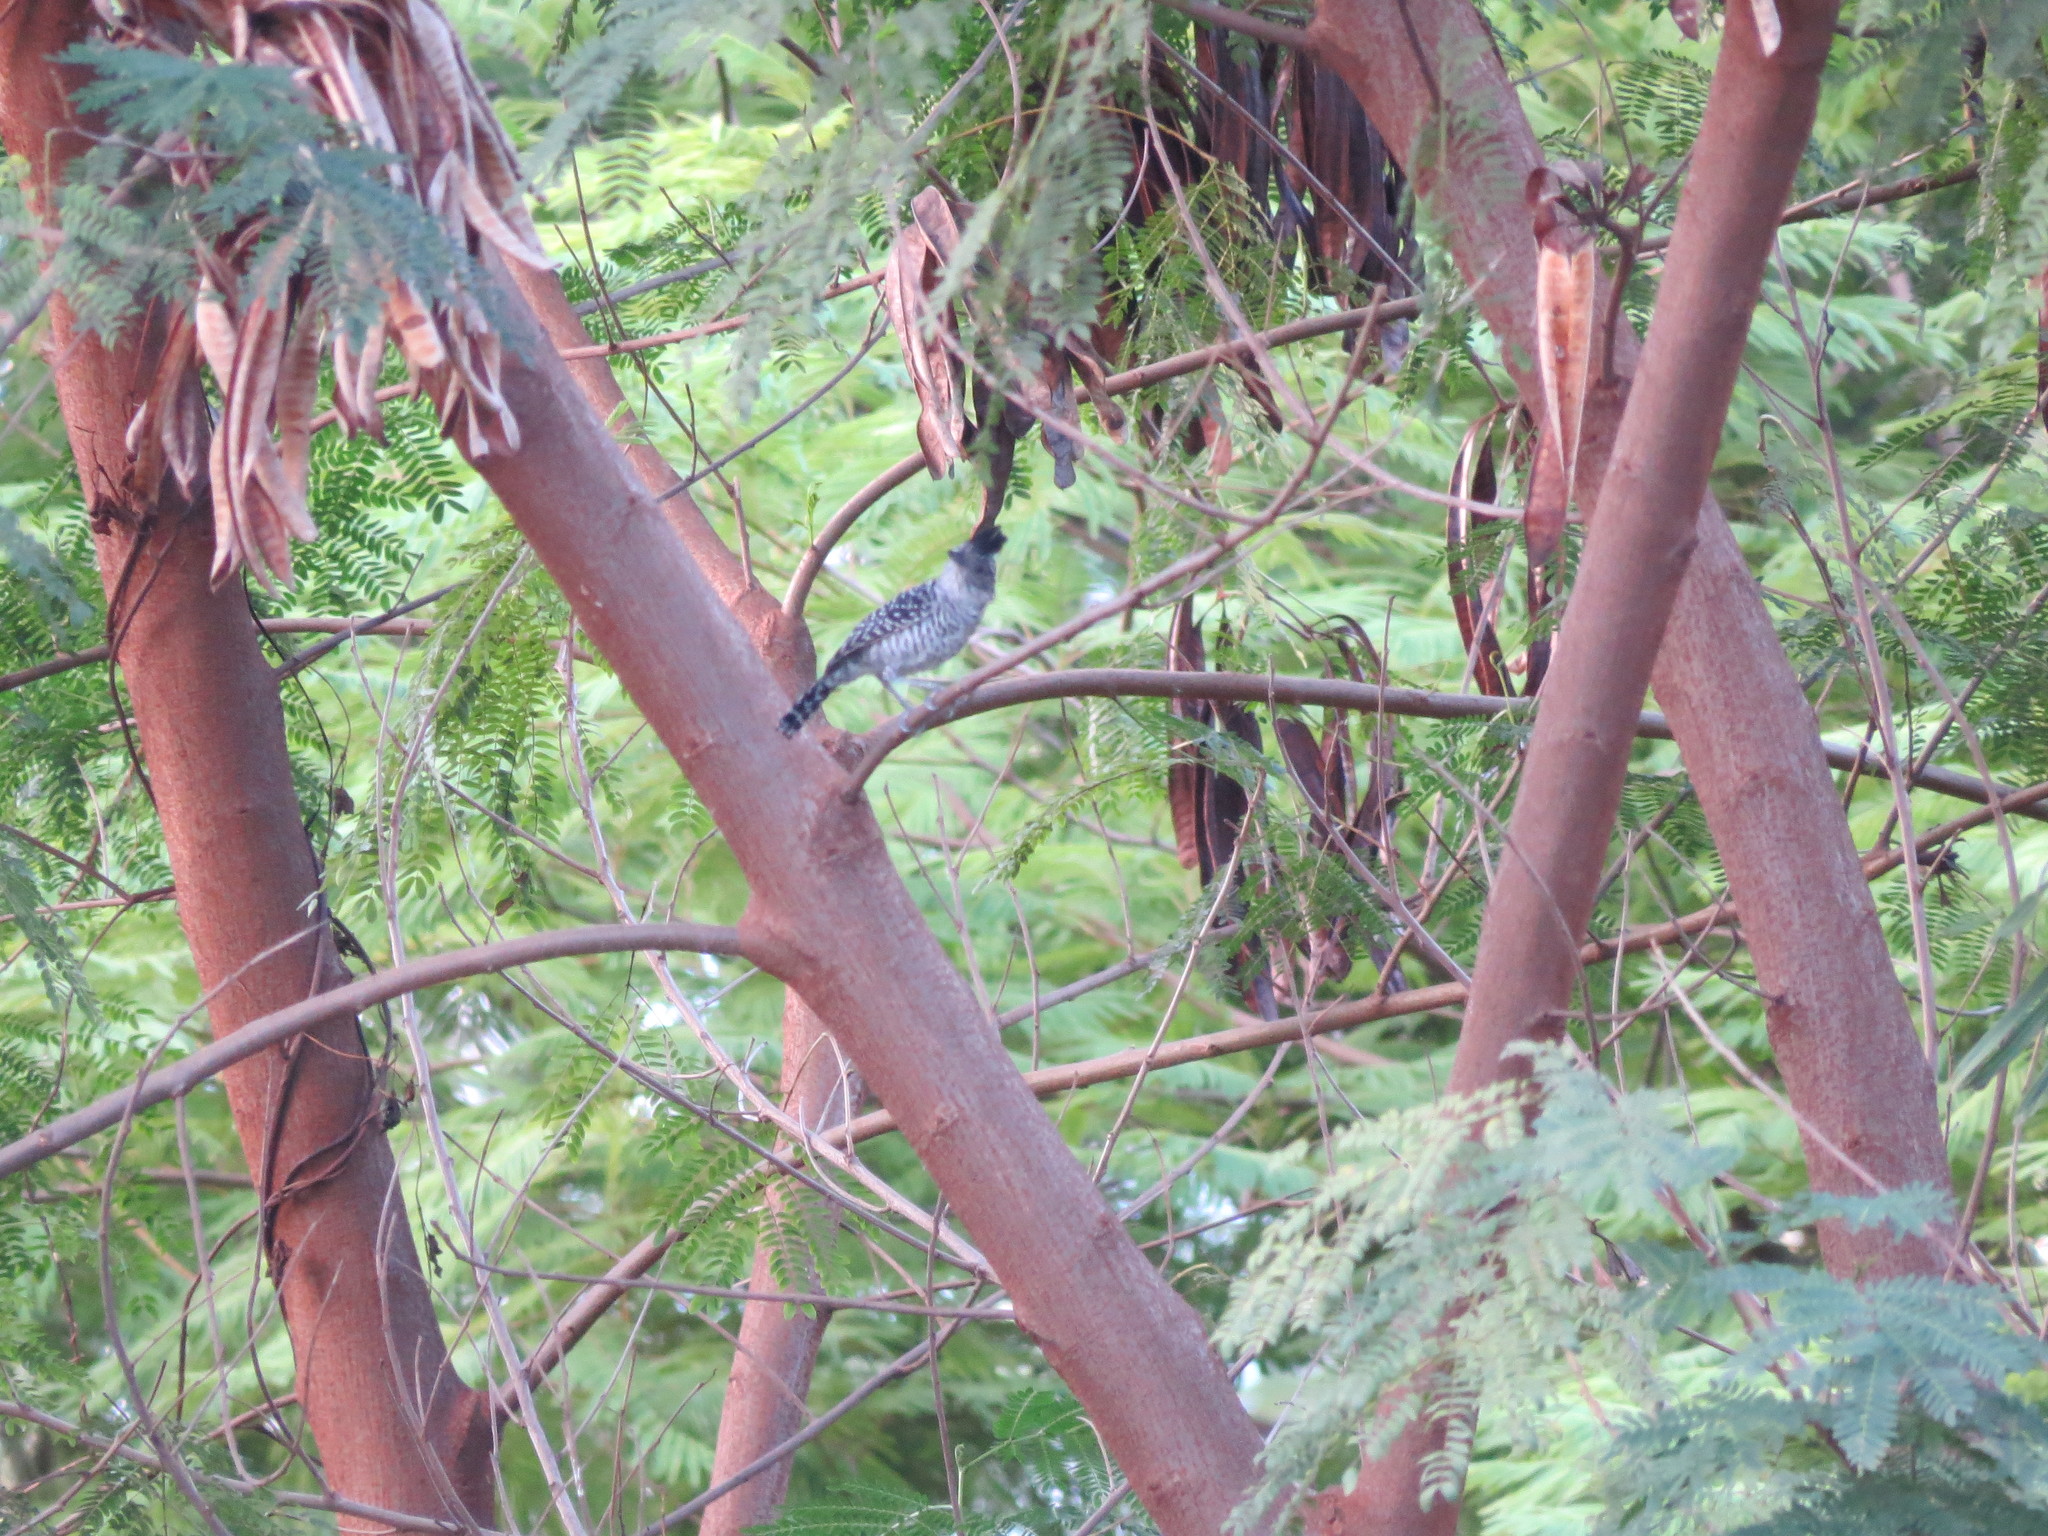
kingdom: Animalia
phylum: Chordata
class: Aves
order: Passeriformes
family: Thamnophilidae
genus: Thamnophilus
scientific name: Thamnophilus doliatus
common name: Barred antshrike
